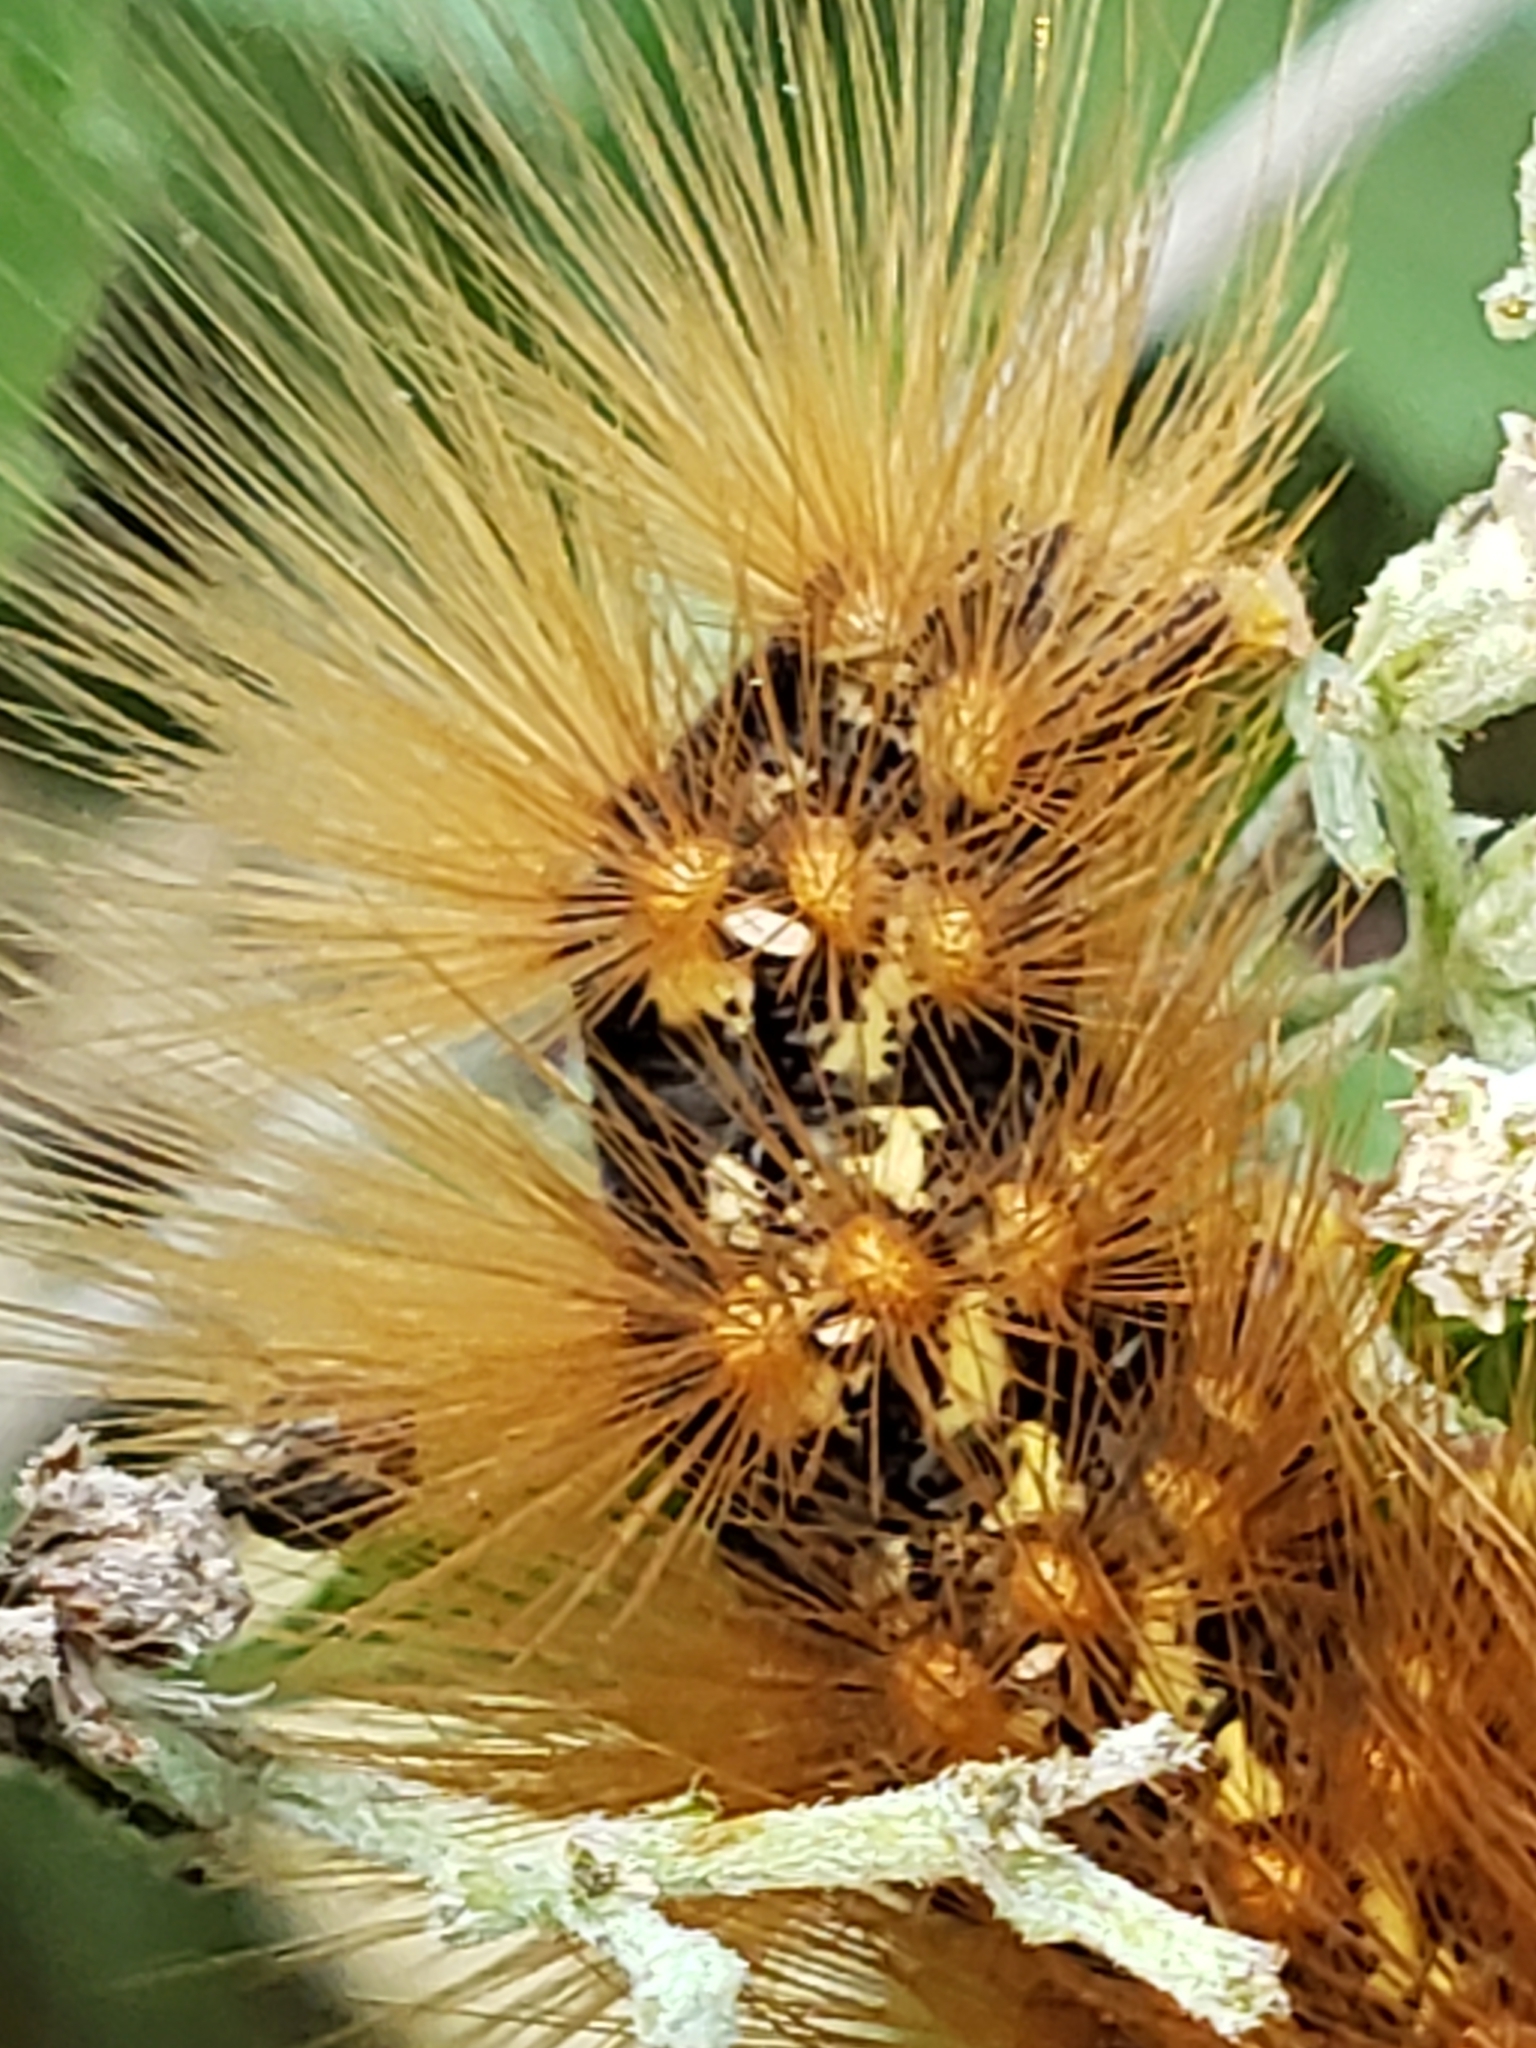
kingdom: Animalia
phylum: Arthropoda
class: Insecta
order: Lepidoptera
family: Erebidae
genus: Estigmene
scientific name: Estigmene acrea
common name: Salt marsh moth
